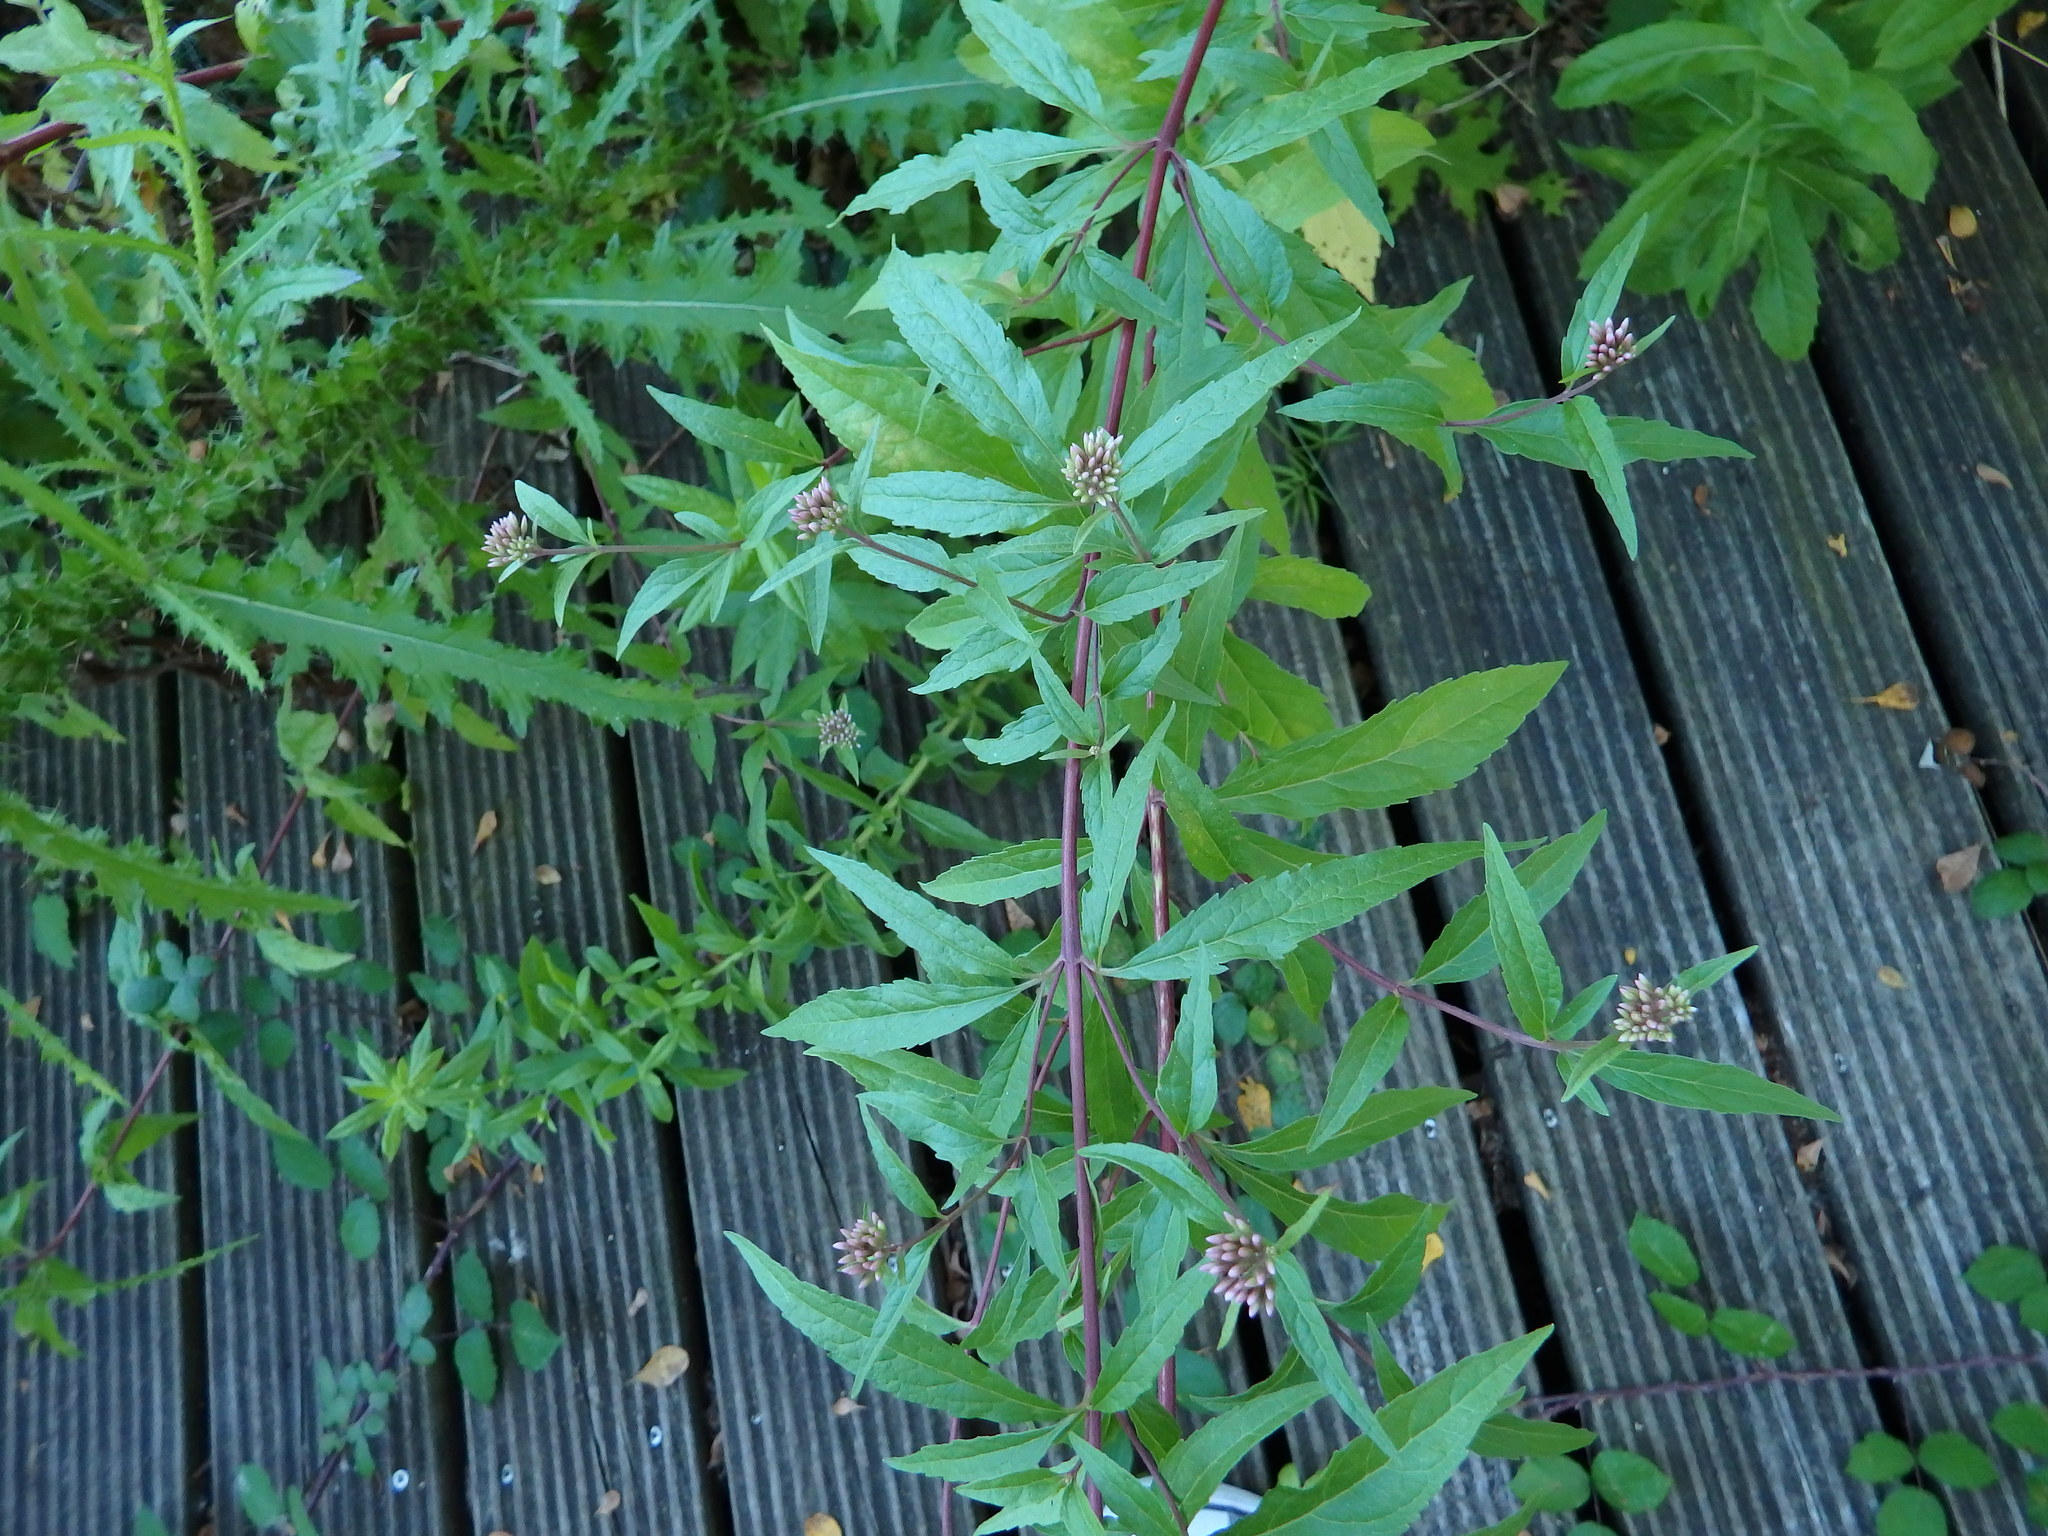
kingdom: Plantae
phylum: Tracheophyta
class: Magnoliopsida
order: Asterales
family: Asteraceae
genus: Eupatorium
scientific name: Eupatorium cannabinum
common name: Hemp-agrimony
